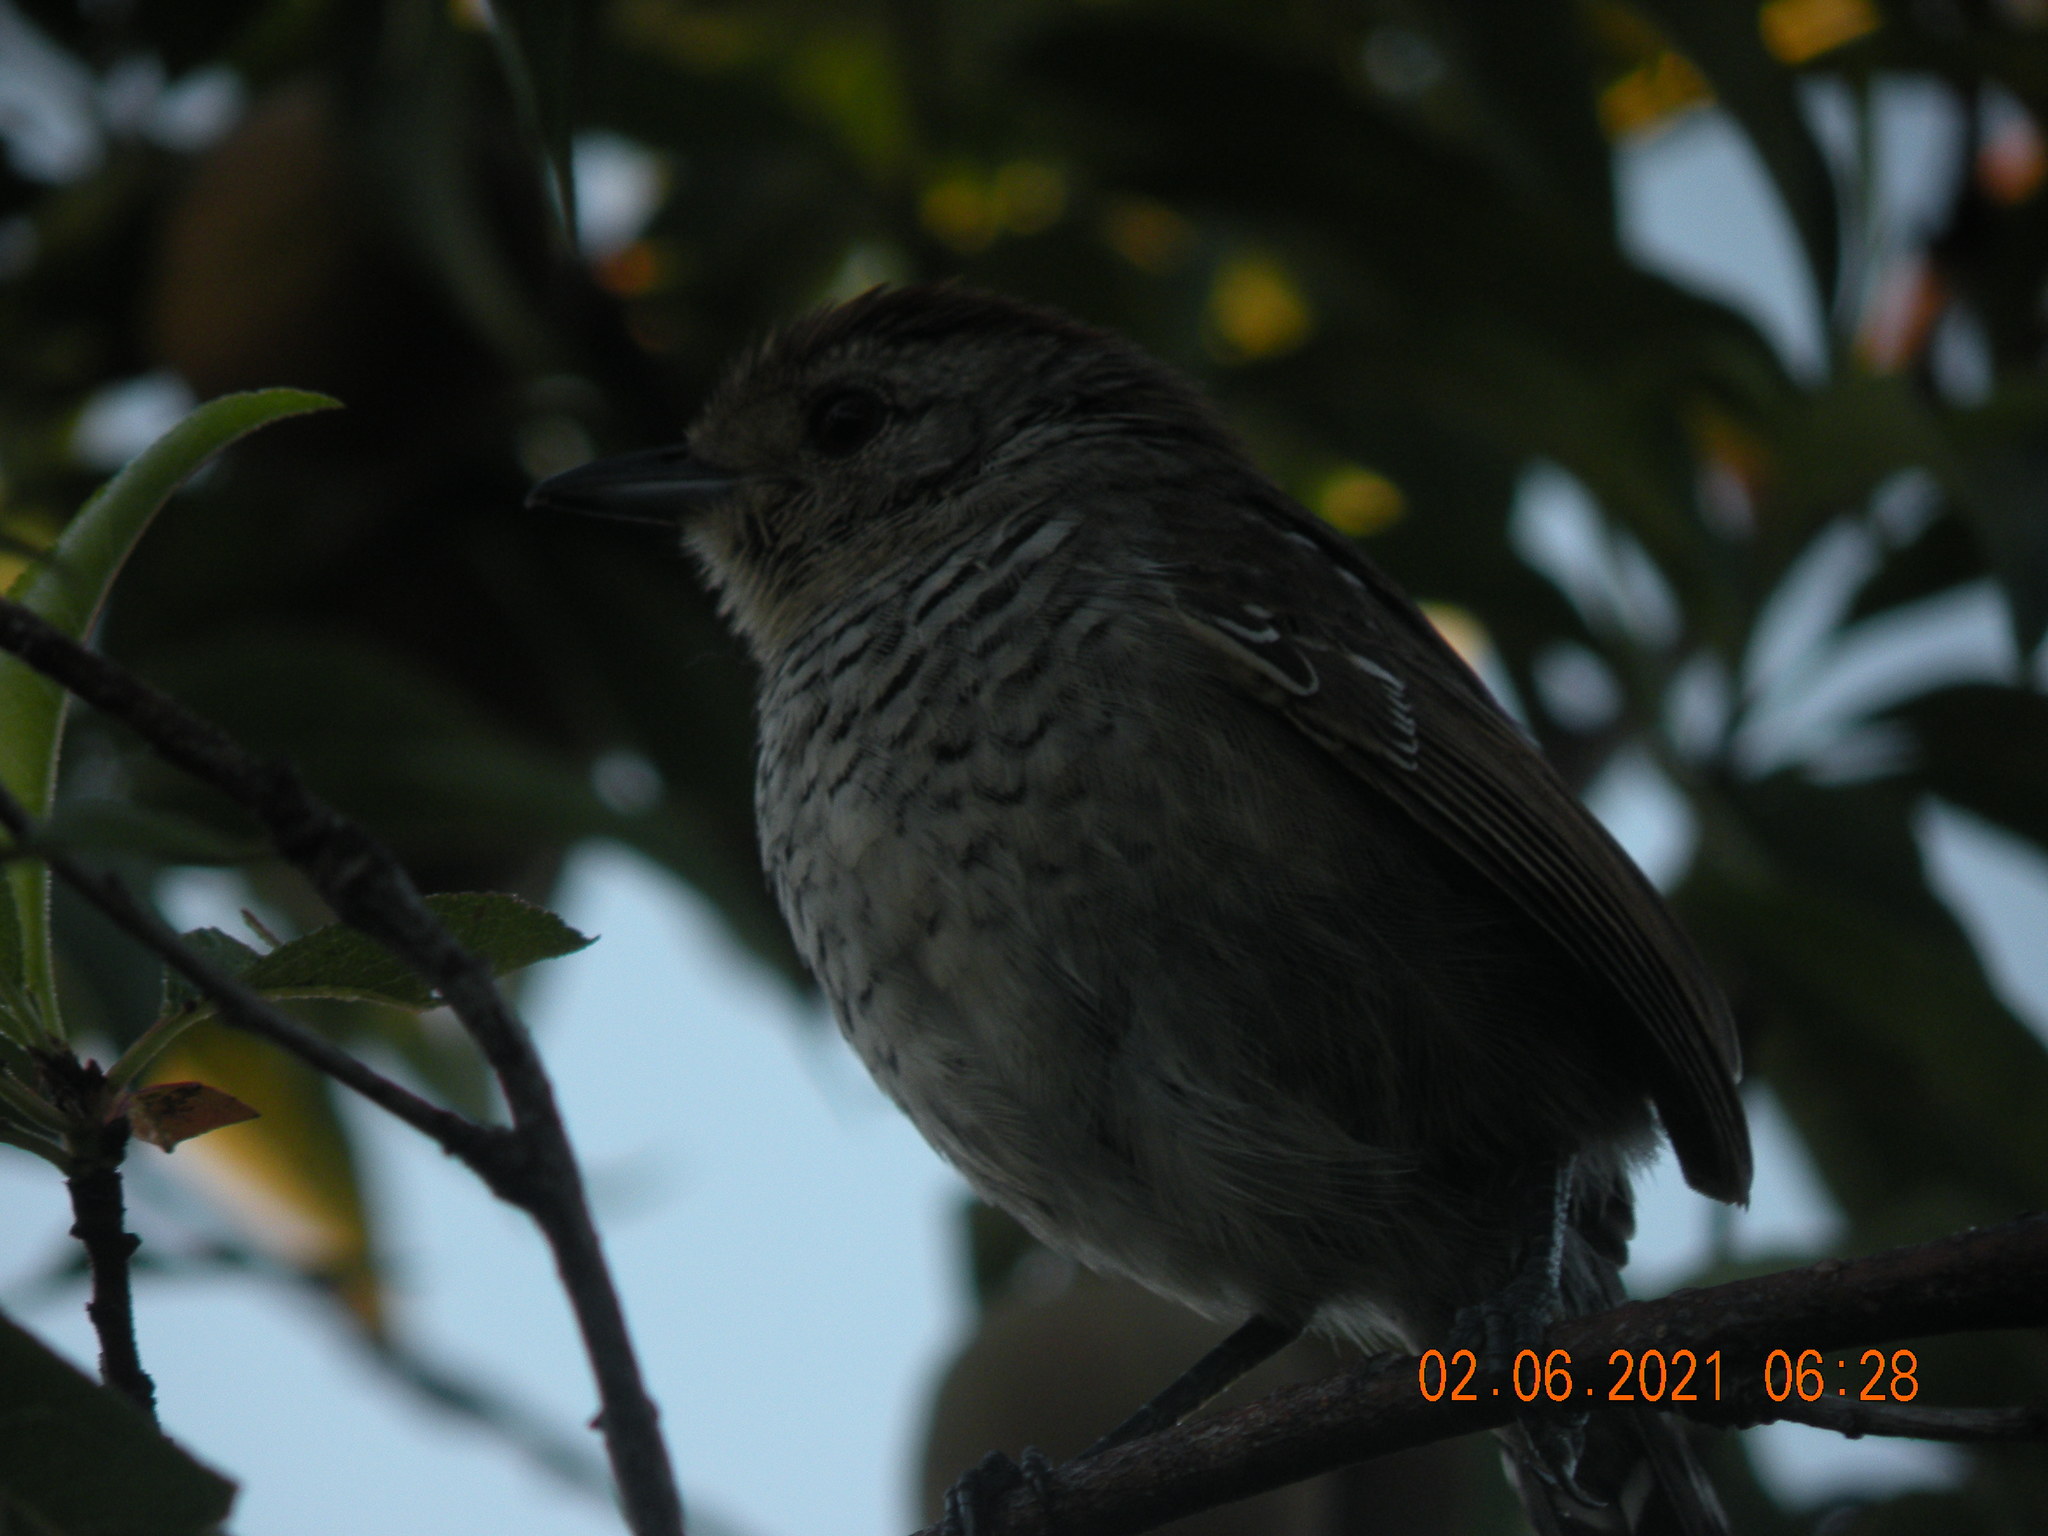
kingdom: Animalia
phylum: Chordata
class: Aves
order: Passeriformes
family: Thamnophilidae
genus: Thamnophilus
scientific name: Thamnophilus ruficapillus
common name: Rufous-capped antshrike
